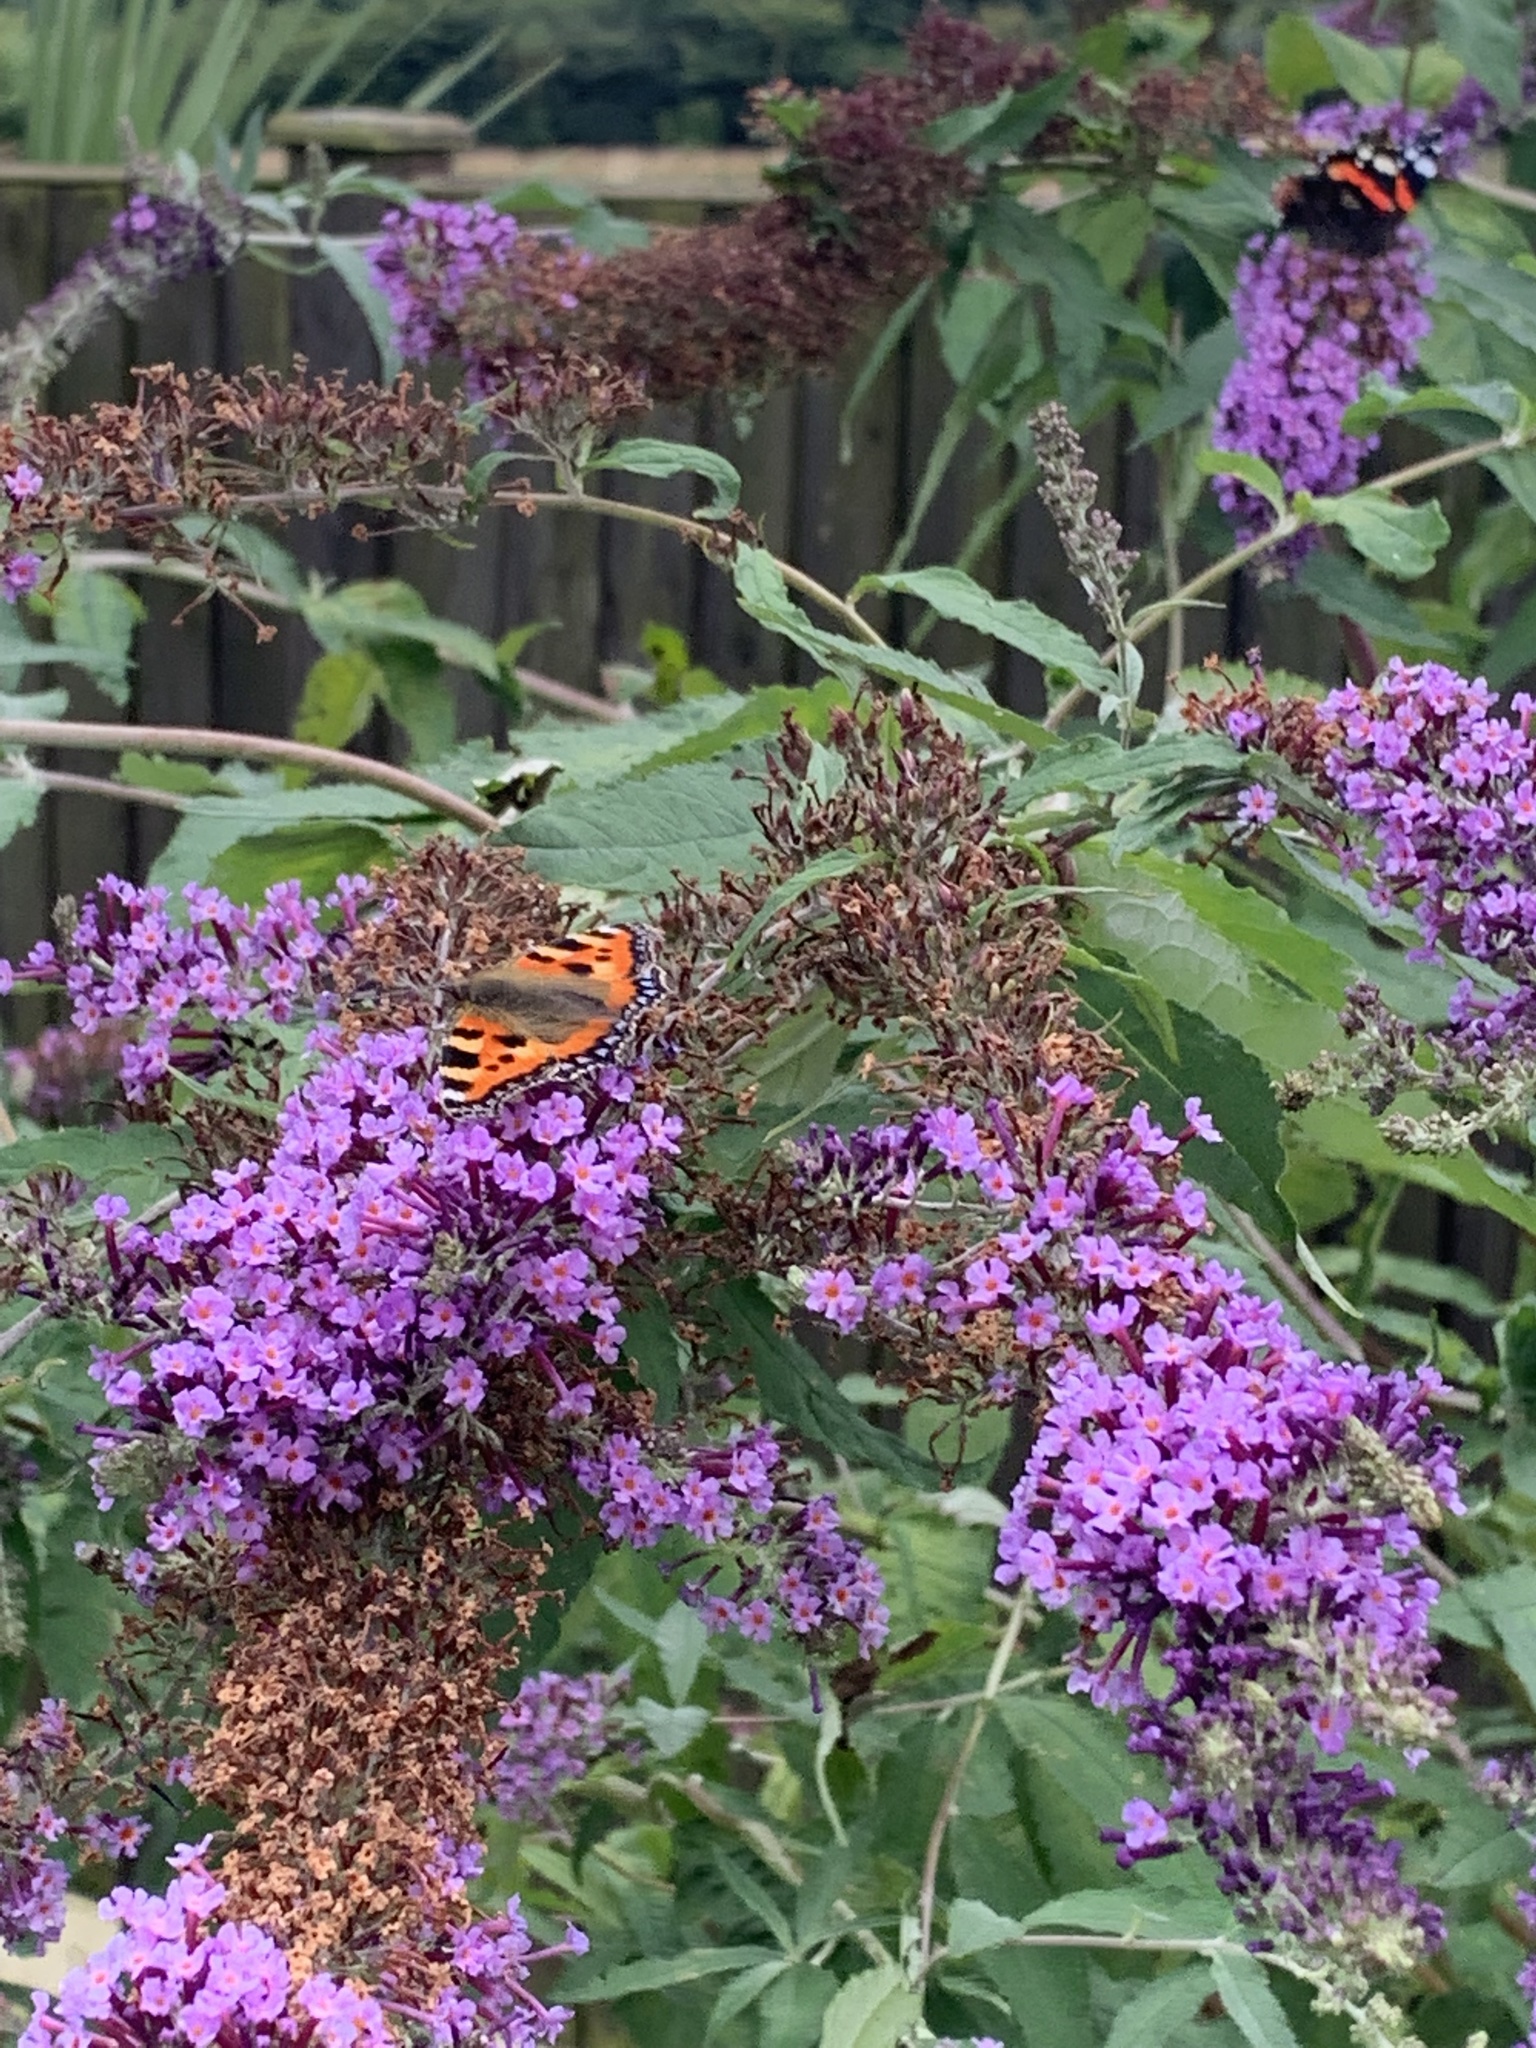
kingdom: Animalia
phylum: Arthropoda
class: Insecta
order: Lepidoptera
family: Nymphalidae
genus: Aglais
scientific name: Aglais urticae
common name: Small tortoiseshell
